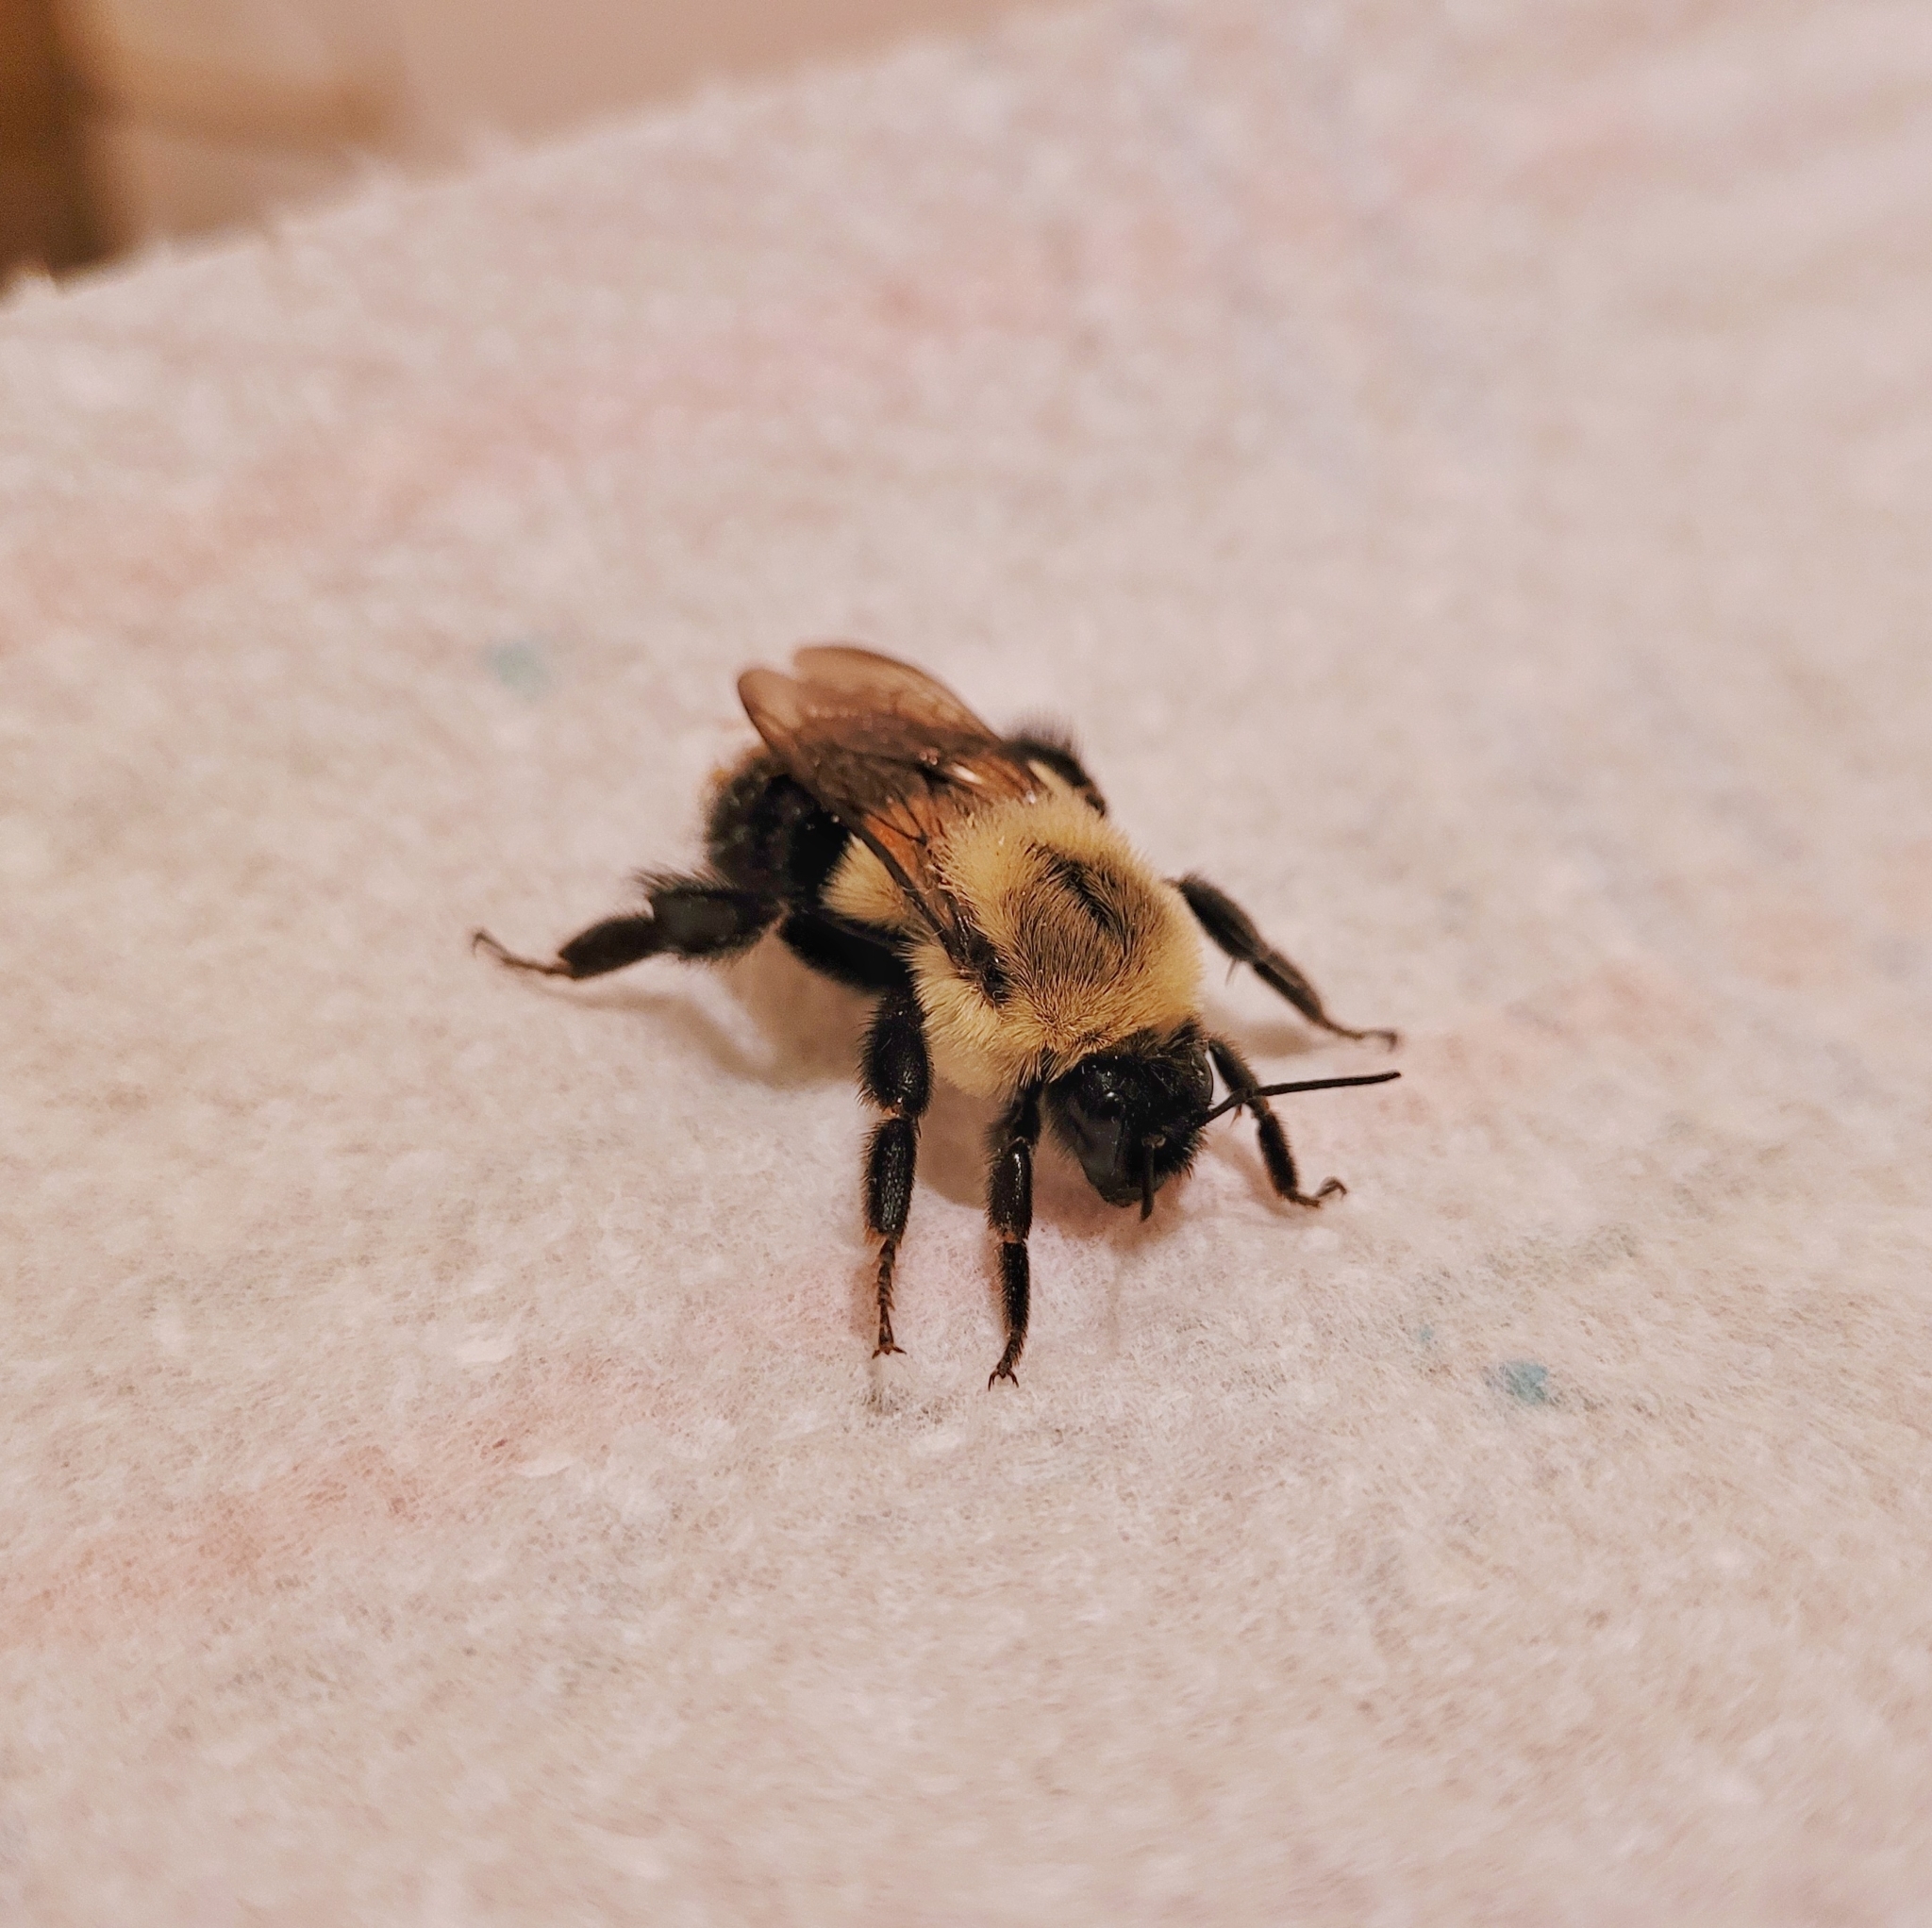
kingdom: Animalia
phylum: Arthropoda
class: Insecta
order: Hymenoptera
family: Apidae
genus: Bombus
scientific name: Bombus impatiens
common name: Common eastern bumble bee
